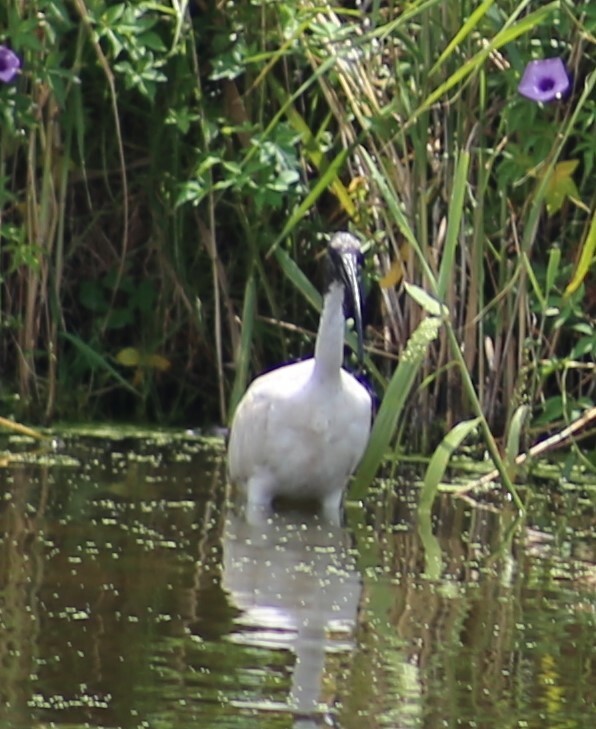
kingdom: Animalia
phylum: Chordata
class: Aves
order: Pelecaniformes
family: Threskiornithidae
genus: Threskiornis
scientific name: Threskiornis molucca
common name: Australian white ibis
